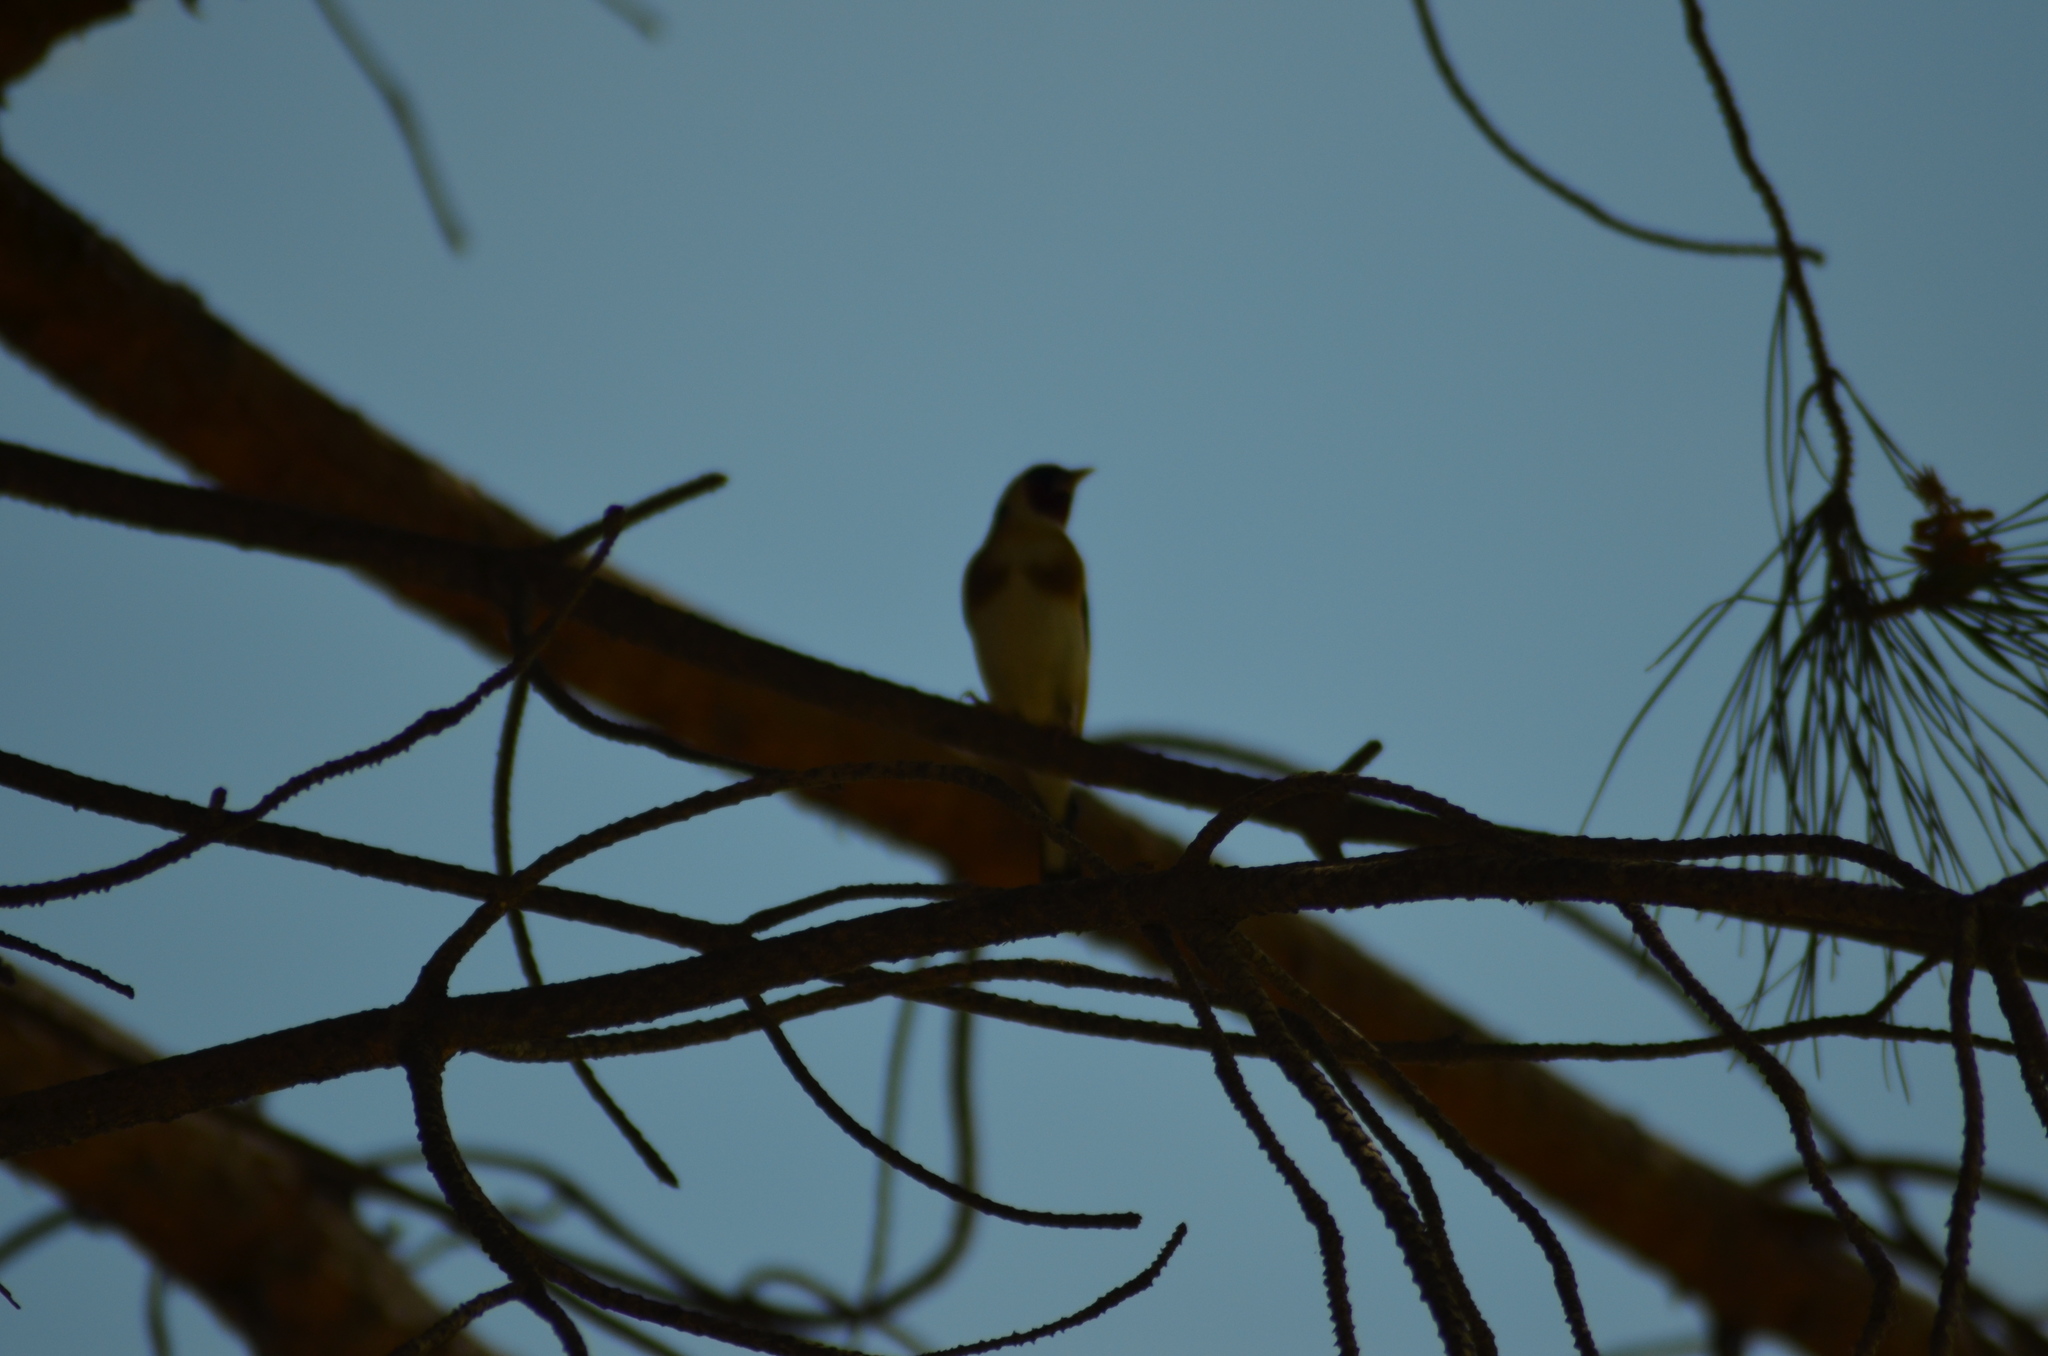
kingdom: Animalia
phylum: Chordata
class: Aves
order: Passeriformes
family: Fringillidae
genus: Carduelis
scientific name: Carduelis carduelis
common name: European goldfinch
